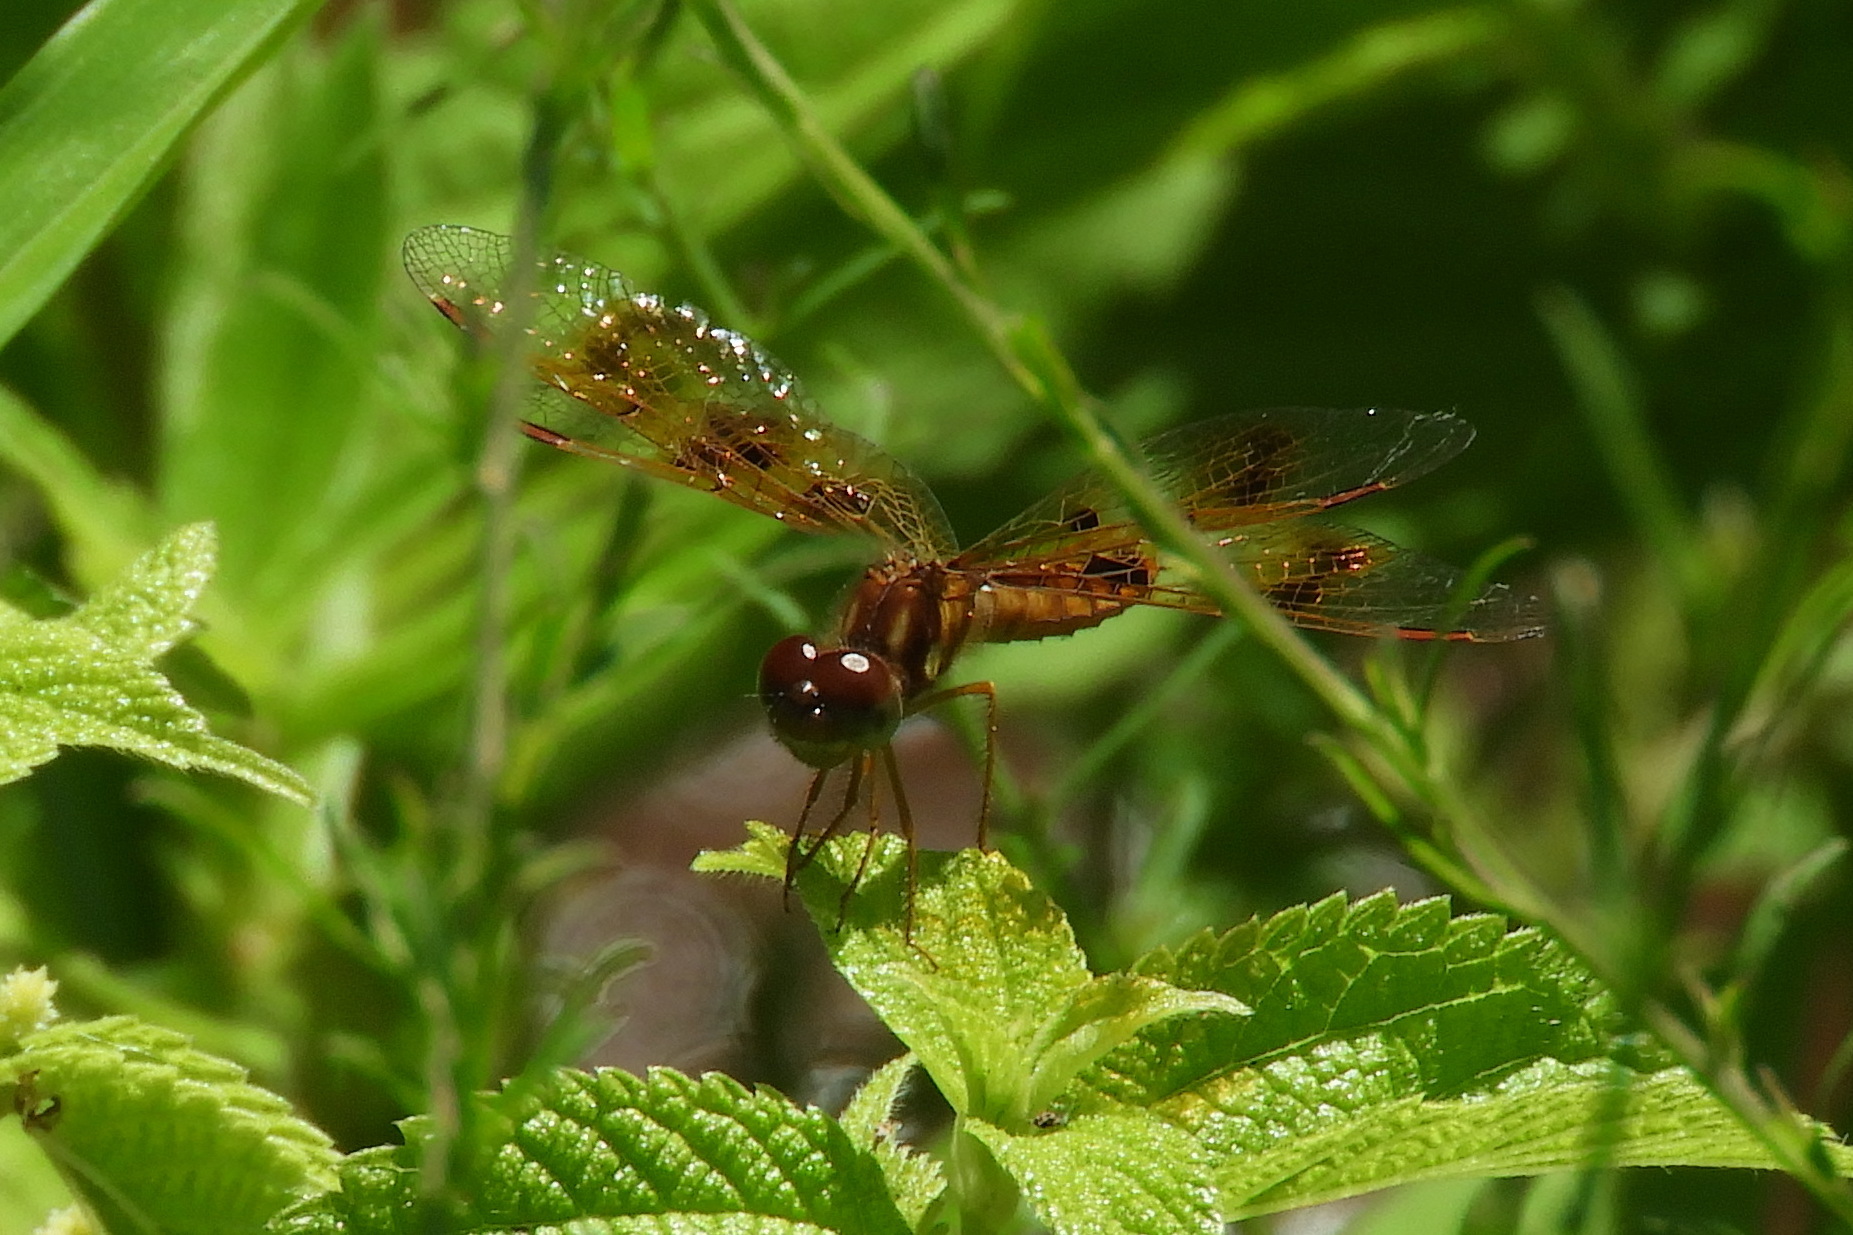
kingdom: Animalia
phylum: Arthropoda
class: Insecta
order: Odonata
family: Libellulidae
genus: Perithemis
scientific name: Perithemis tenera
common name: Eastern amberwing
